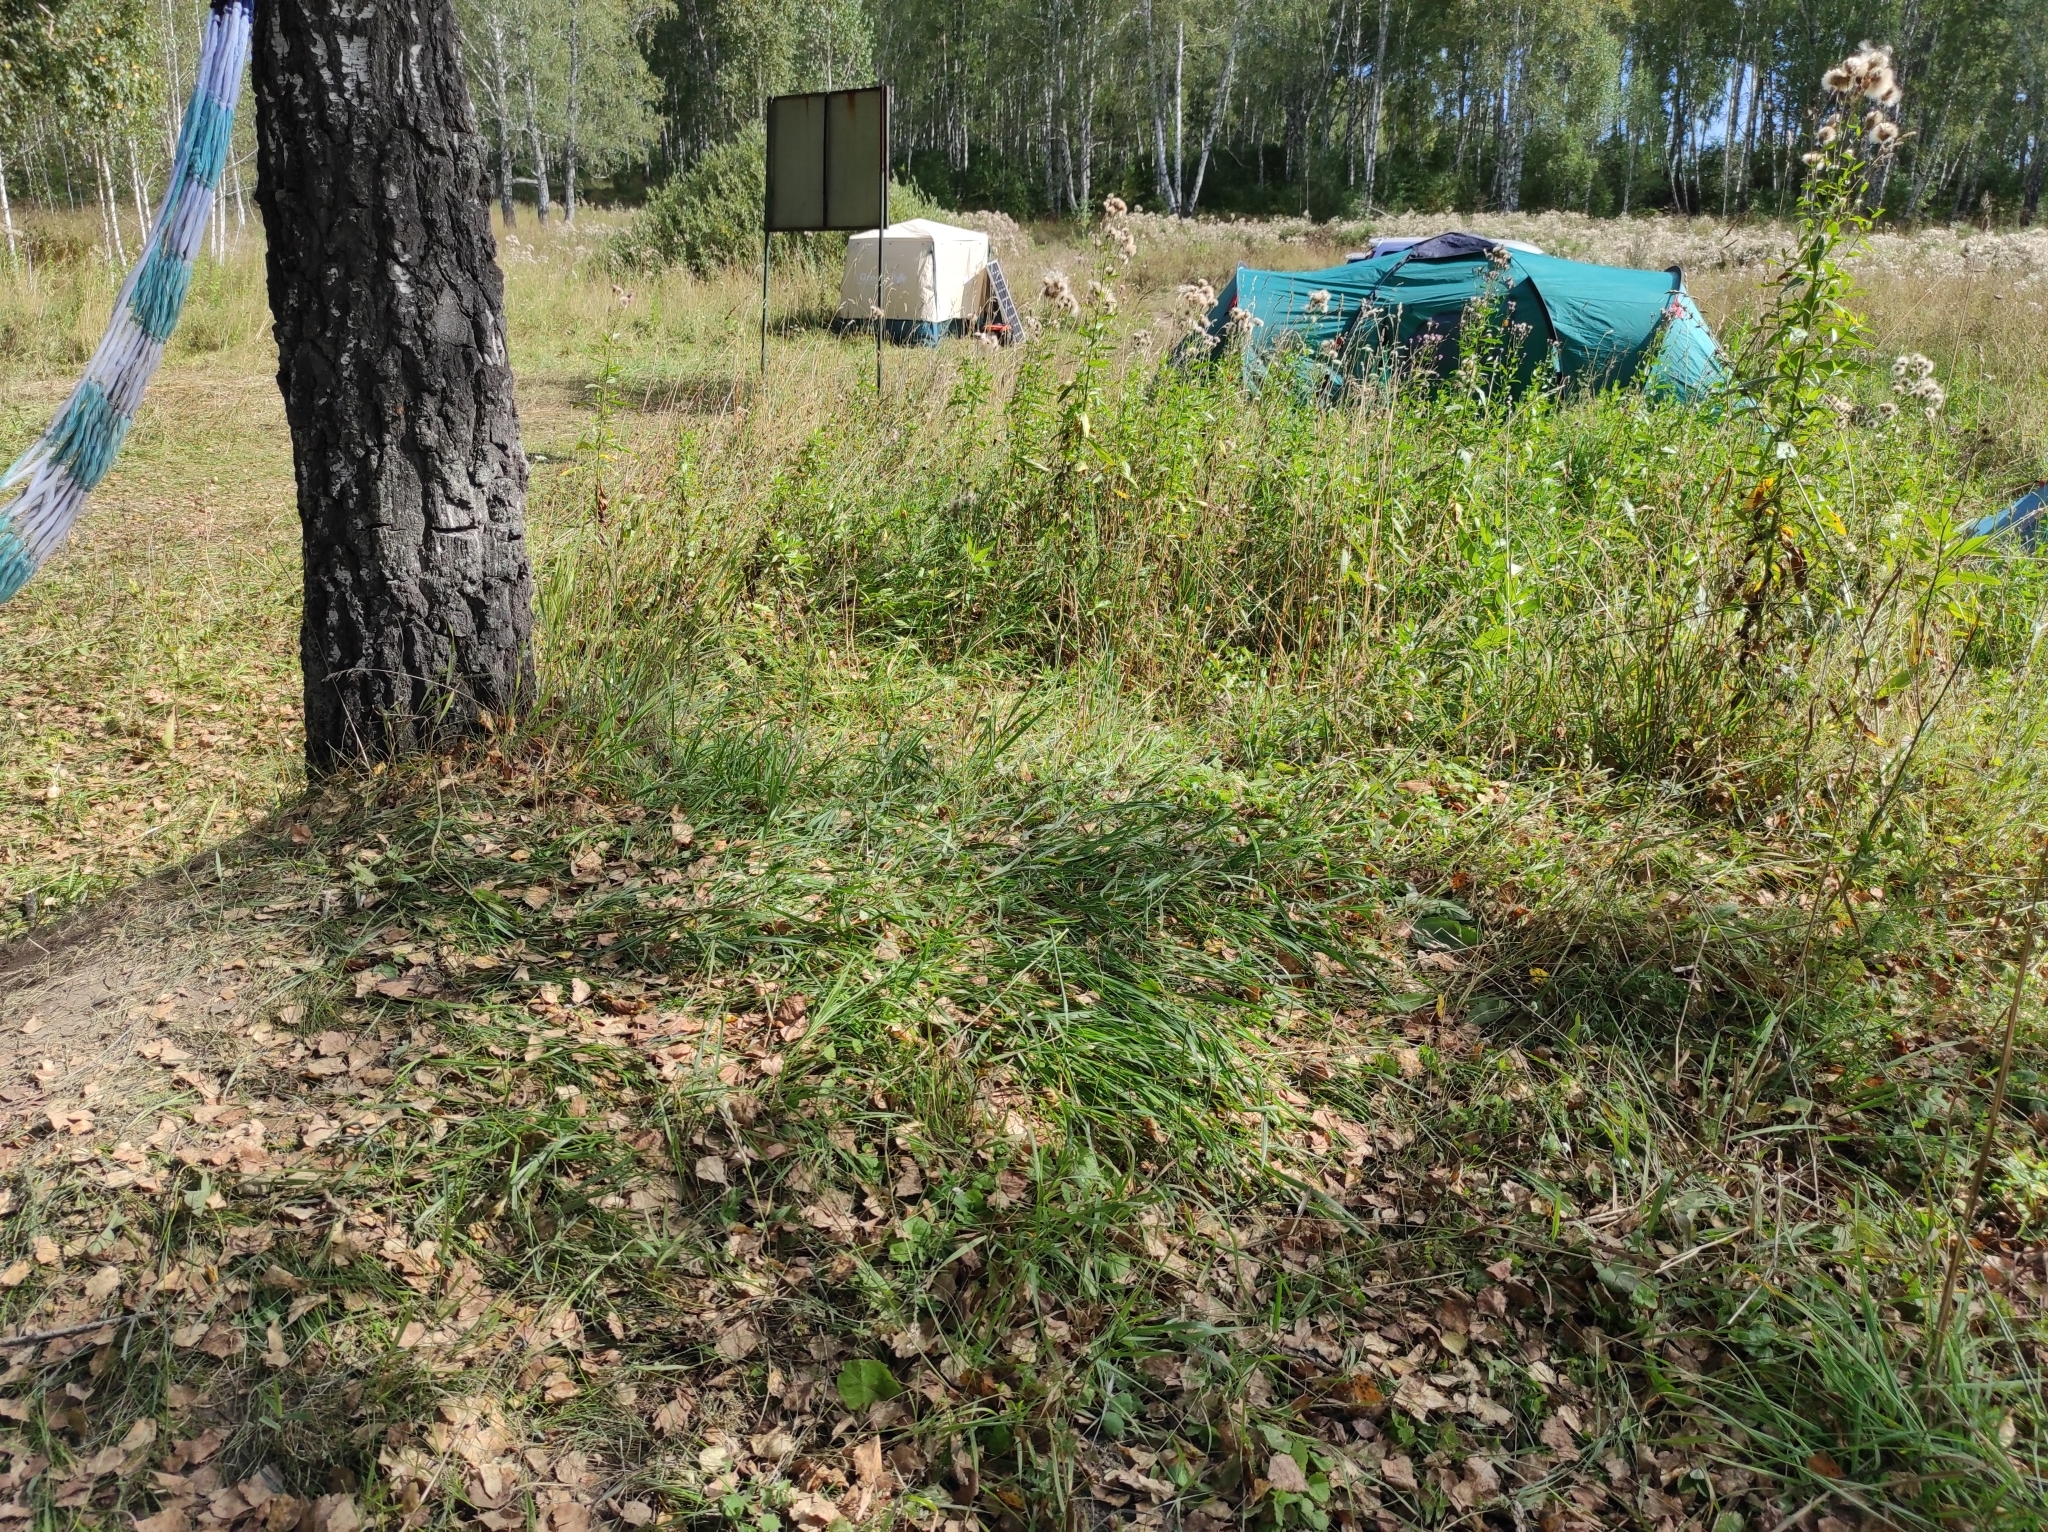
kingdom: Plantae
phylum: Tracheophyta
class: Magnoliopsida
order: Asterales
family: Asteraceae
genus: Cirsium
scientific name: Cirsium arvense
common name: Creeping thistle
